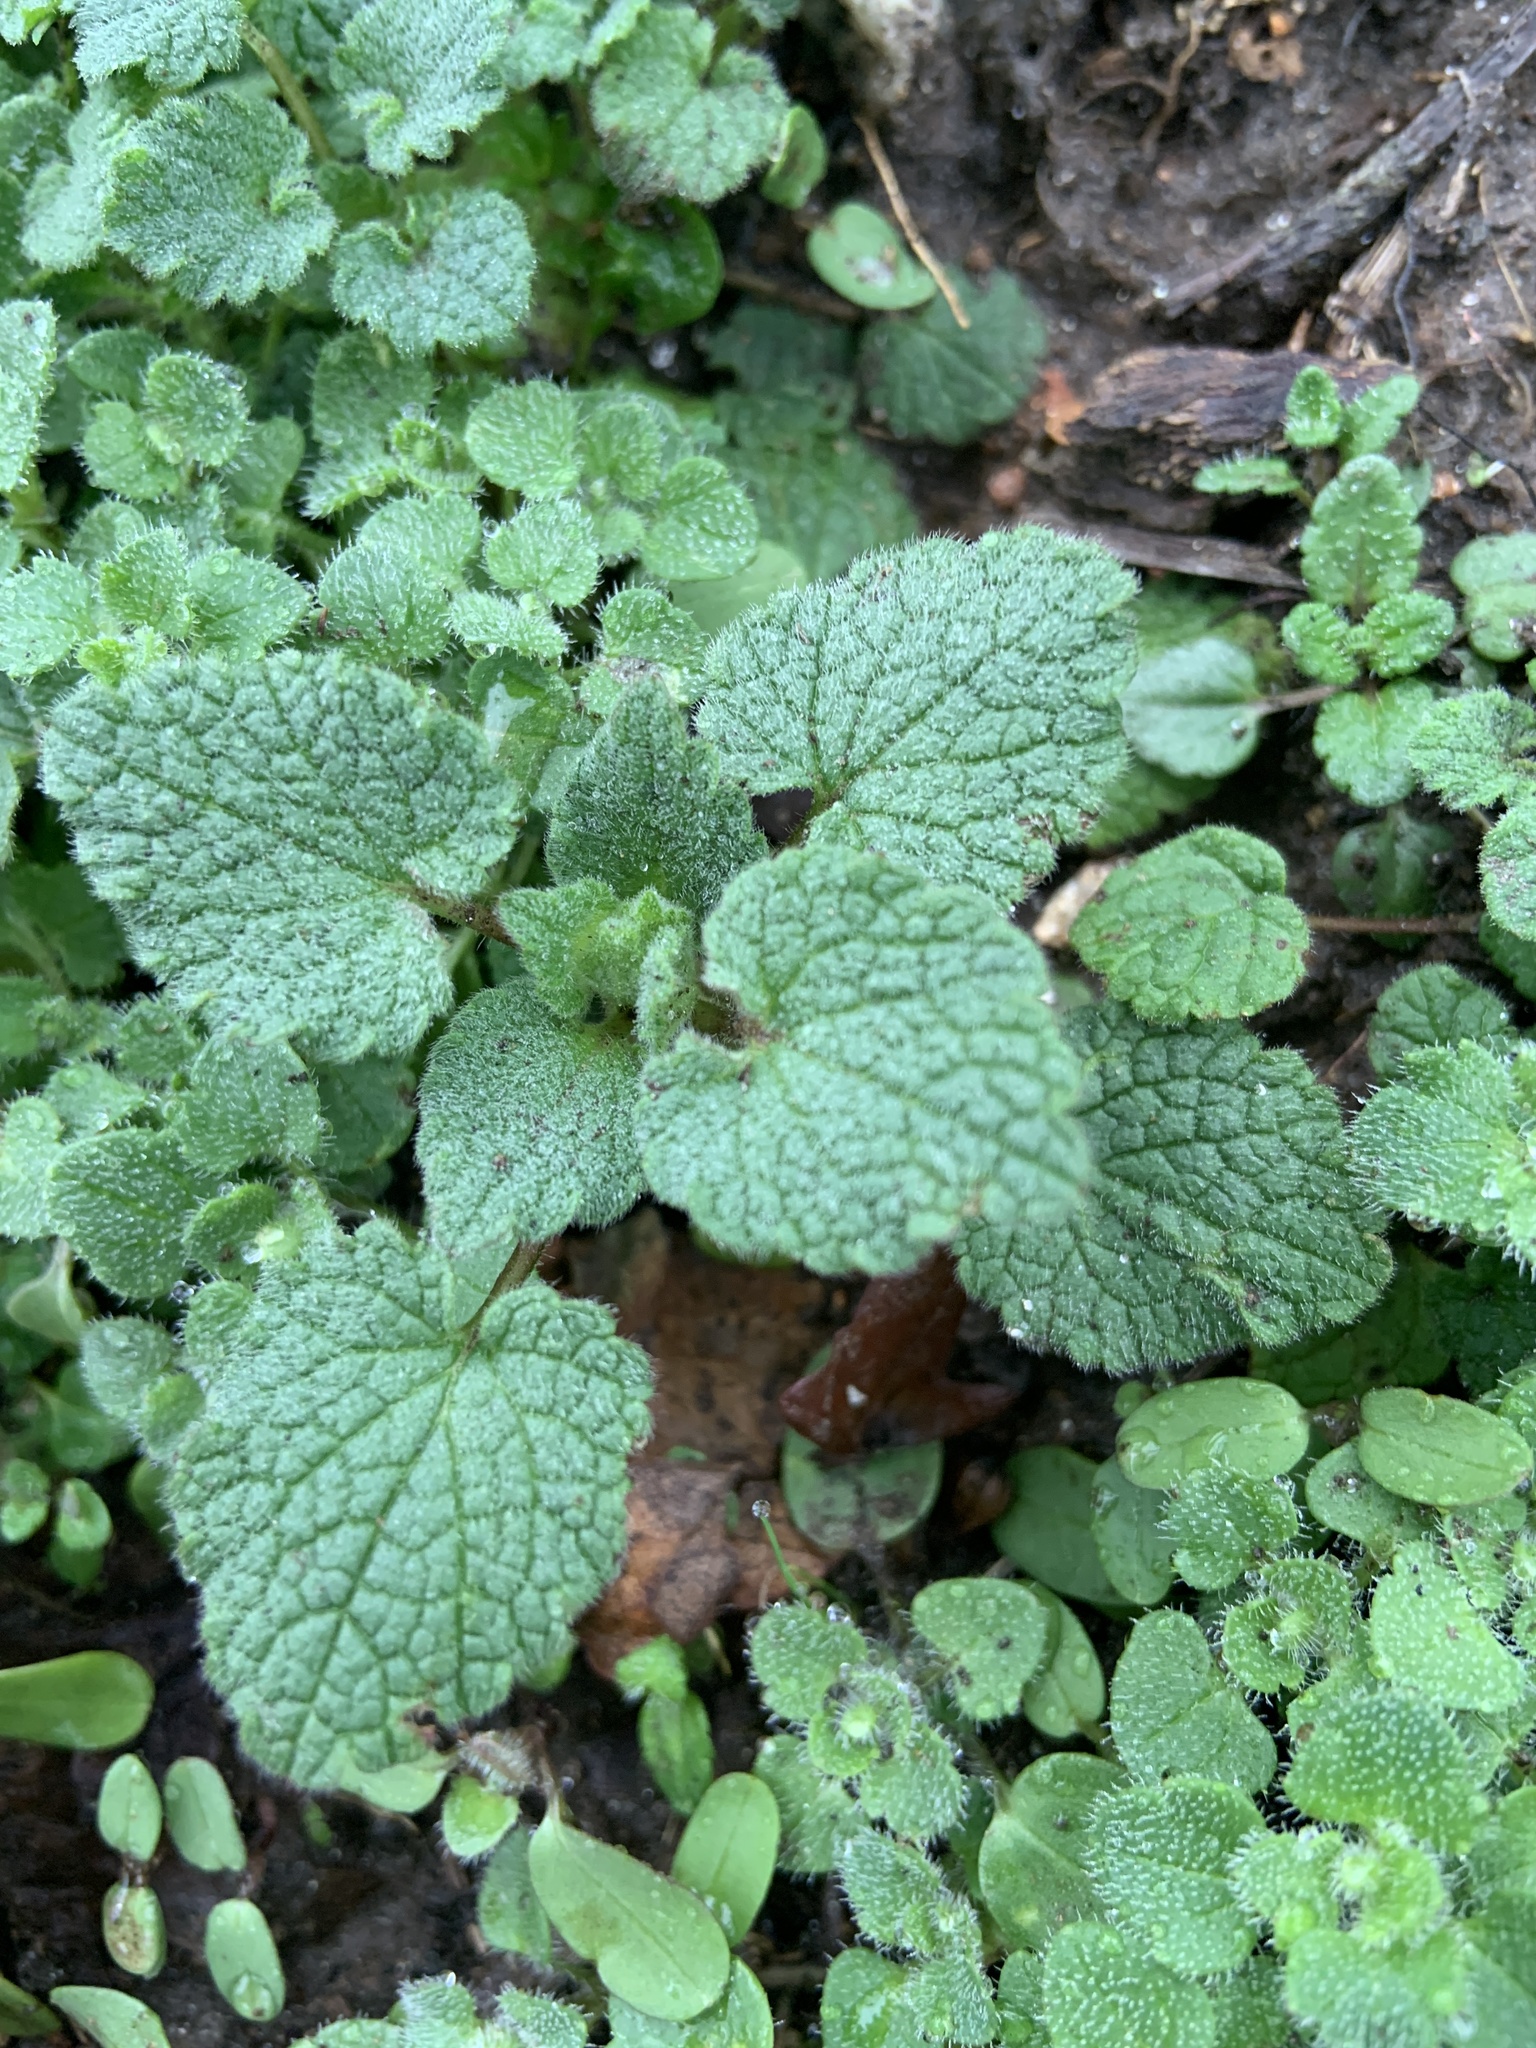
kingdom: Plantae
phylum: Tracheophyta
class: Magnoliopsida
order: Lamiales
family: Lamiaceae
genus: Lamium
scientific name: Lamium purpureum
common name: Red dead-nettle
